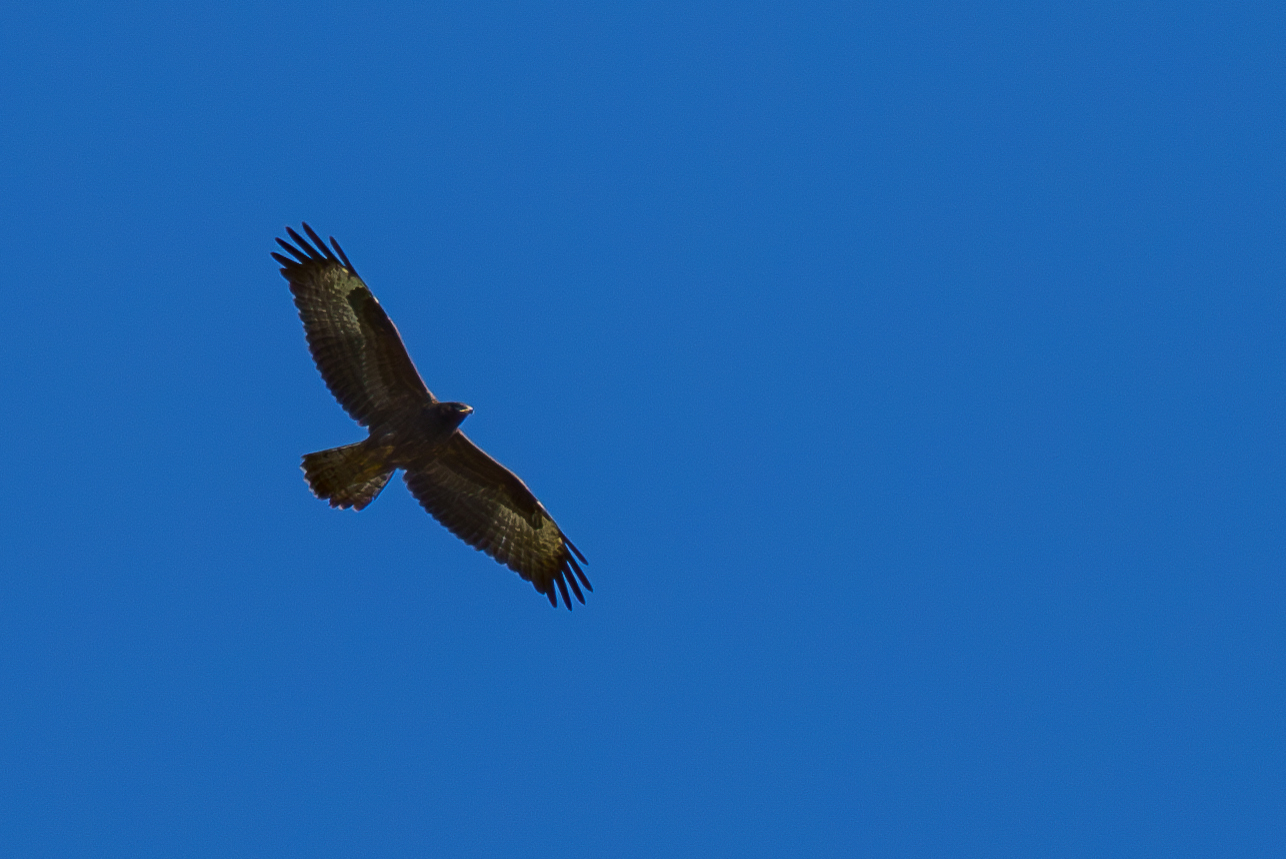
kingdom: Animalia
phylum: Chordata
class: Aves
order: Accipitriformes
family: Accipitridae
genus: Pernis
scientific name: Pernis apivorus
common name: European honey buzzard
